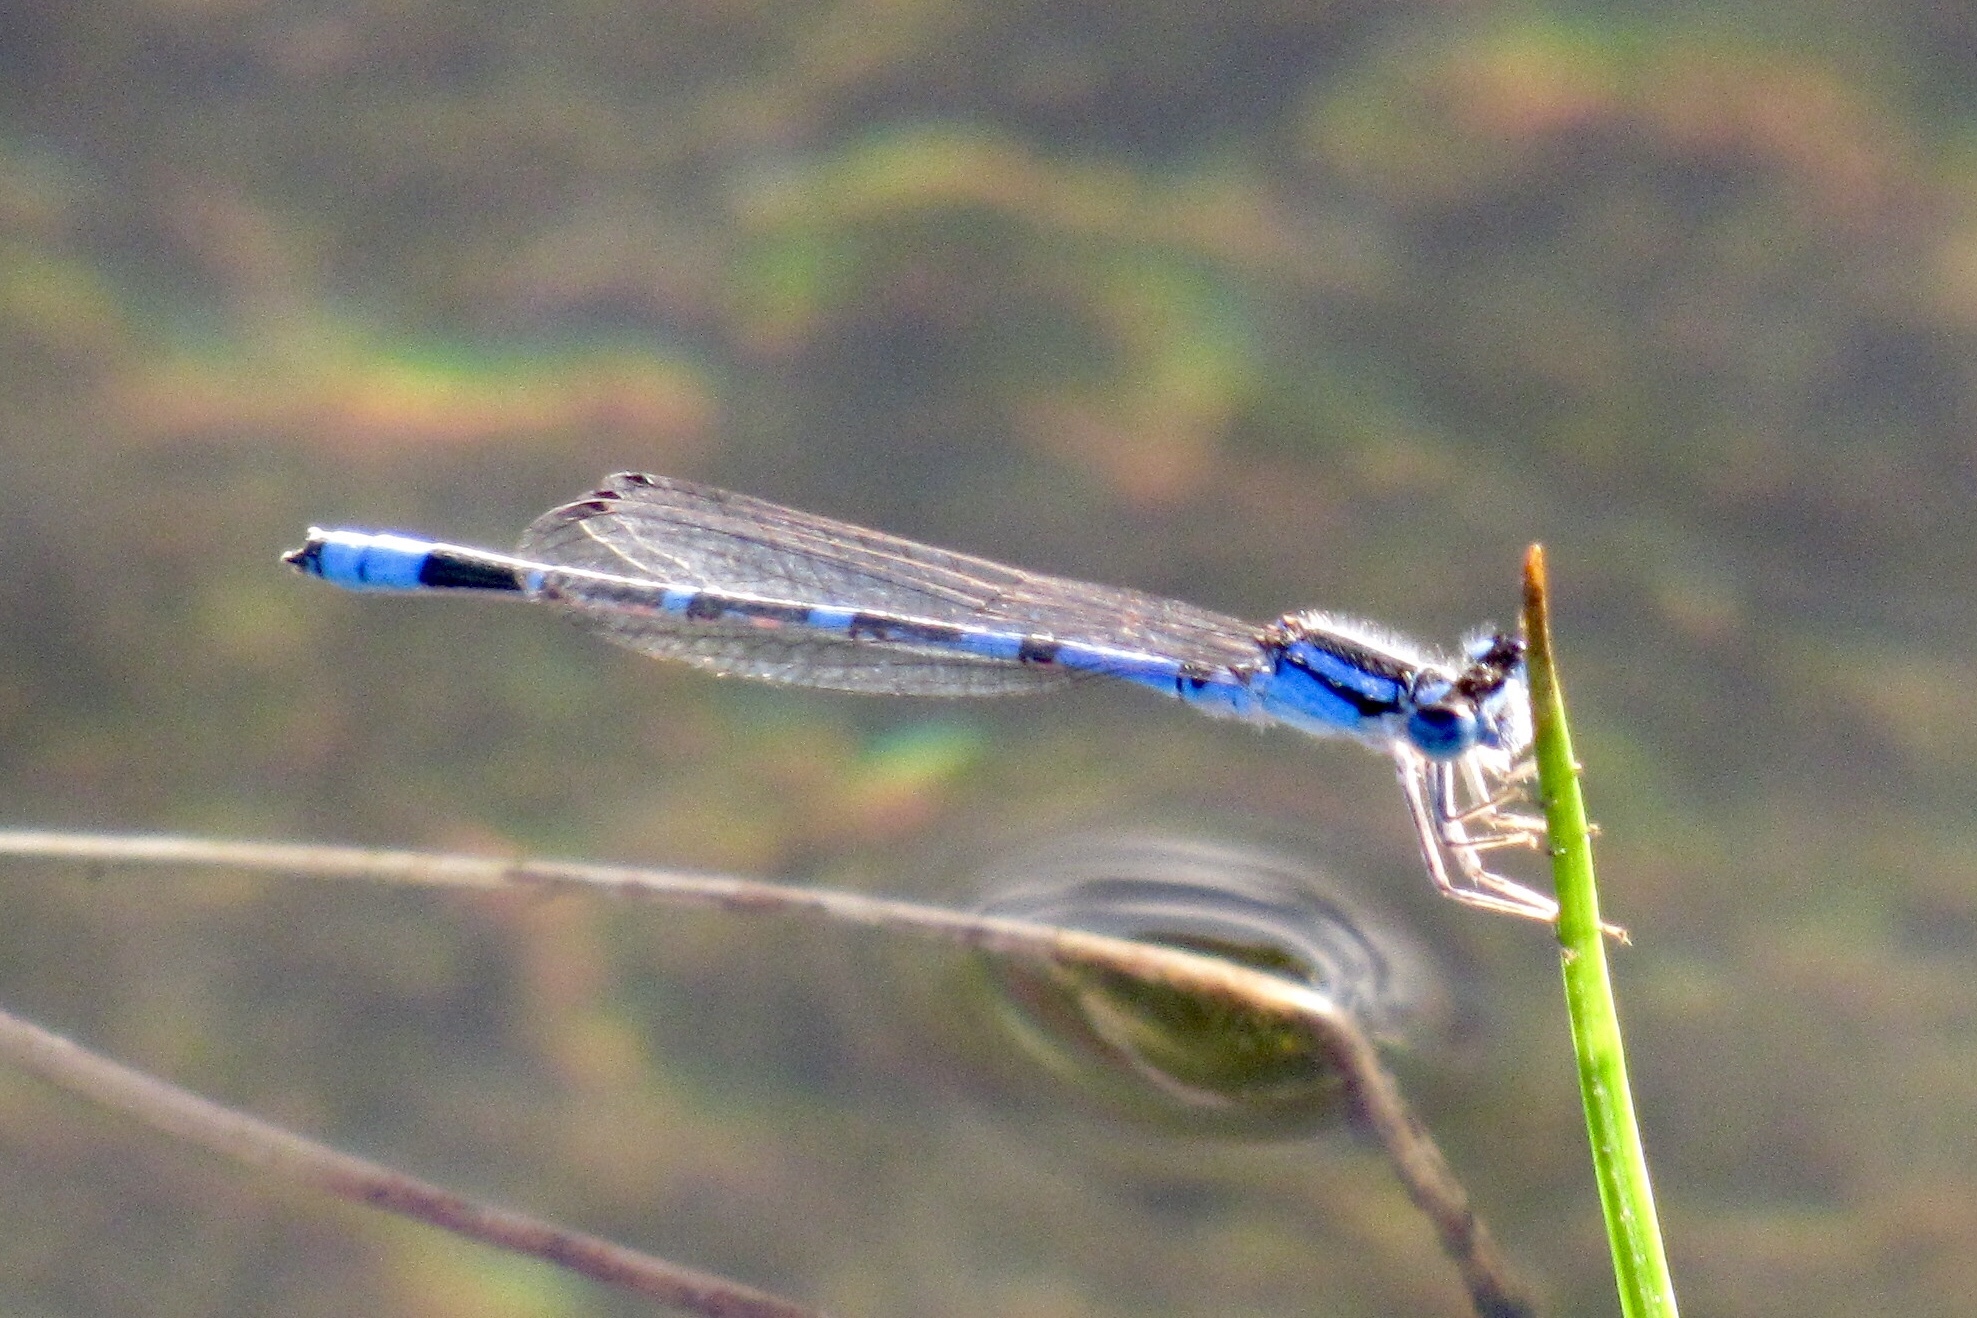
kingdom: Animalia
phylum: Arthropoda
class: Insecta
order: Odonata
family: Coenagrionidae
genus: Enallagma
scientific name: Enallagma praevarum
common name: Arroyo bluet
